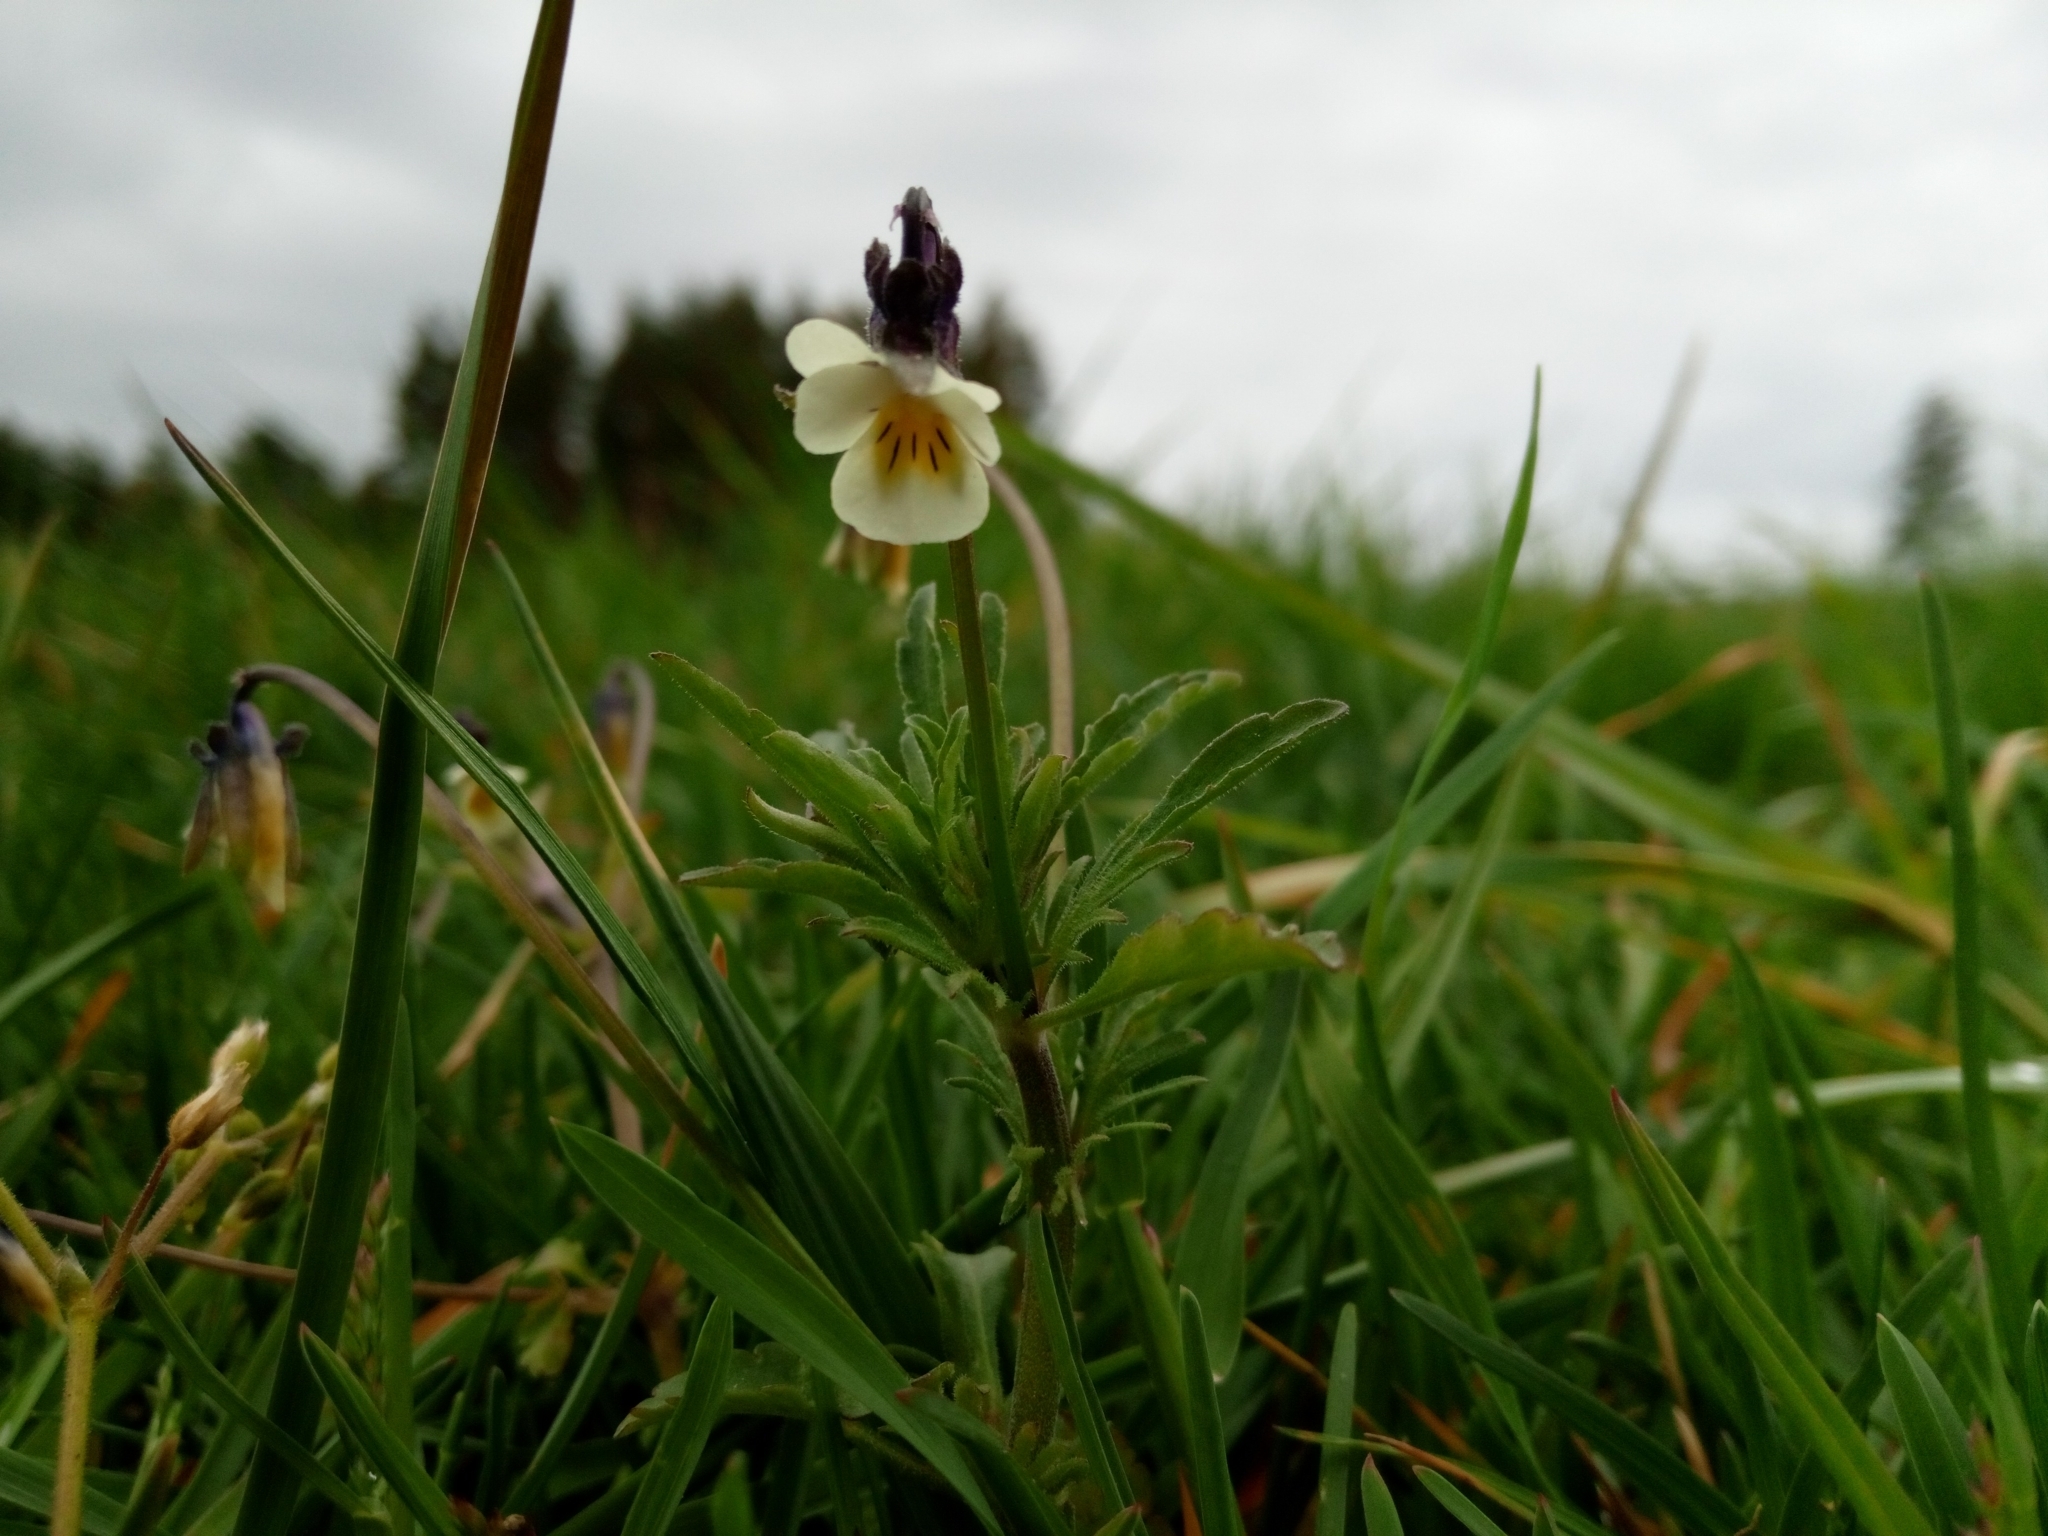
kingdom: Plantae
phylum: Tracheophyta
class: Magnoliopsida
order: Malpighiales
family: Violaceae
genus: Viola
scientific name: Viola arvensis
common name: Field pansy
